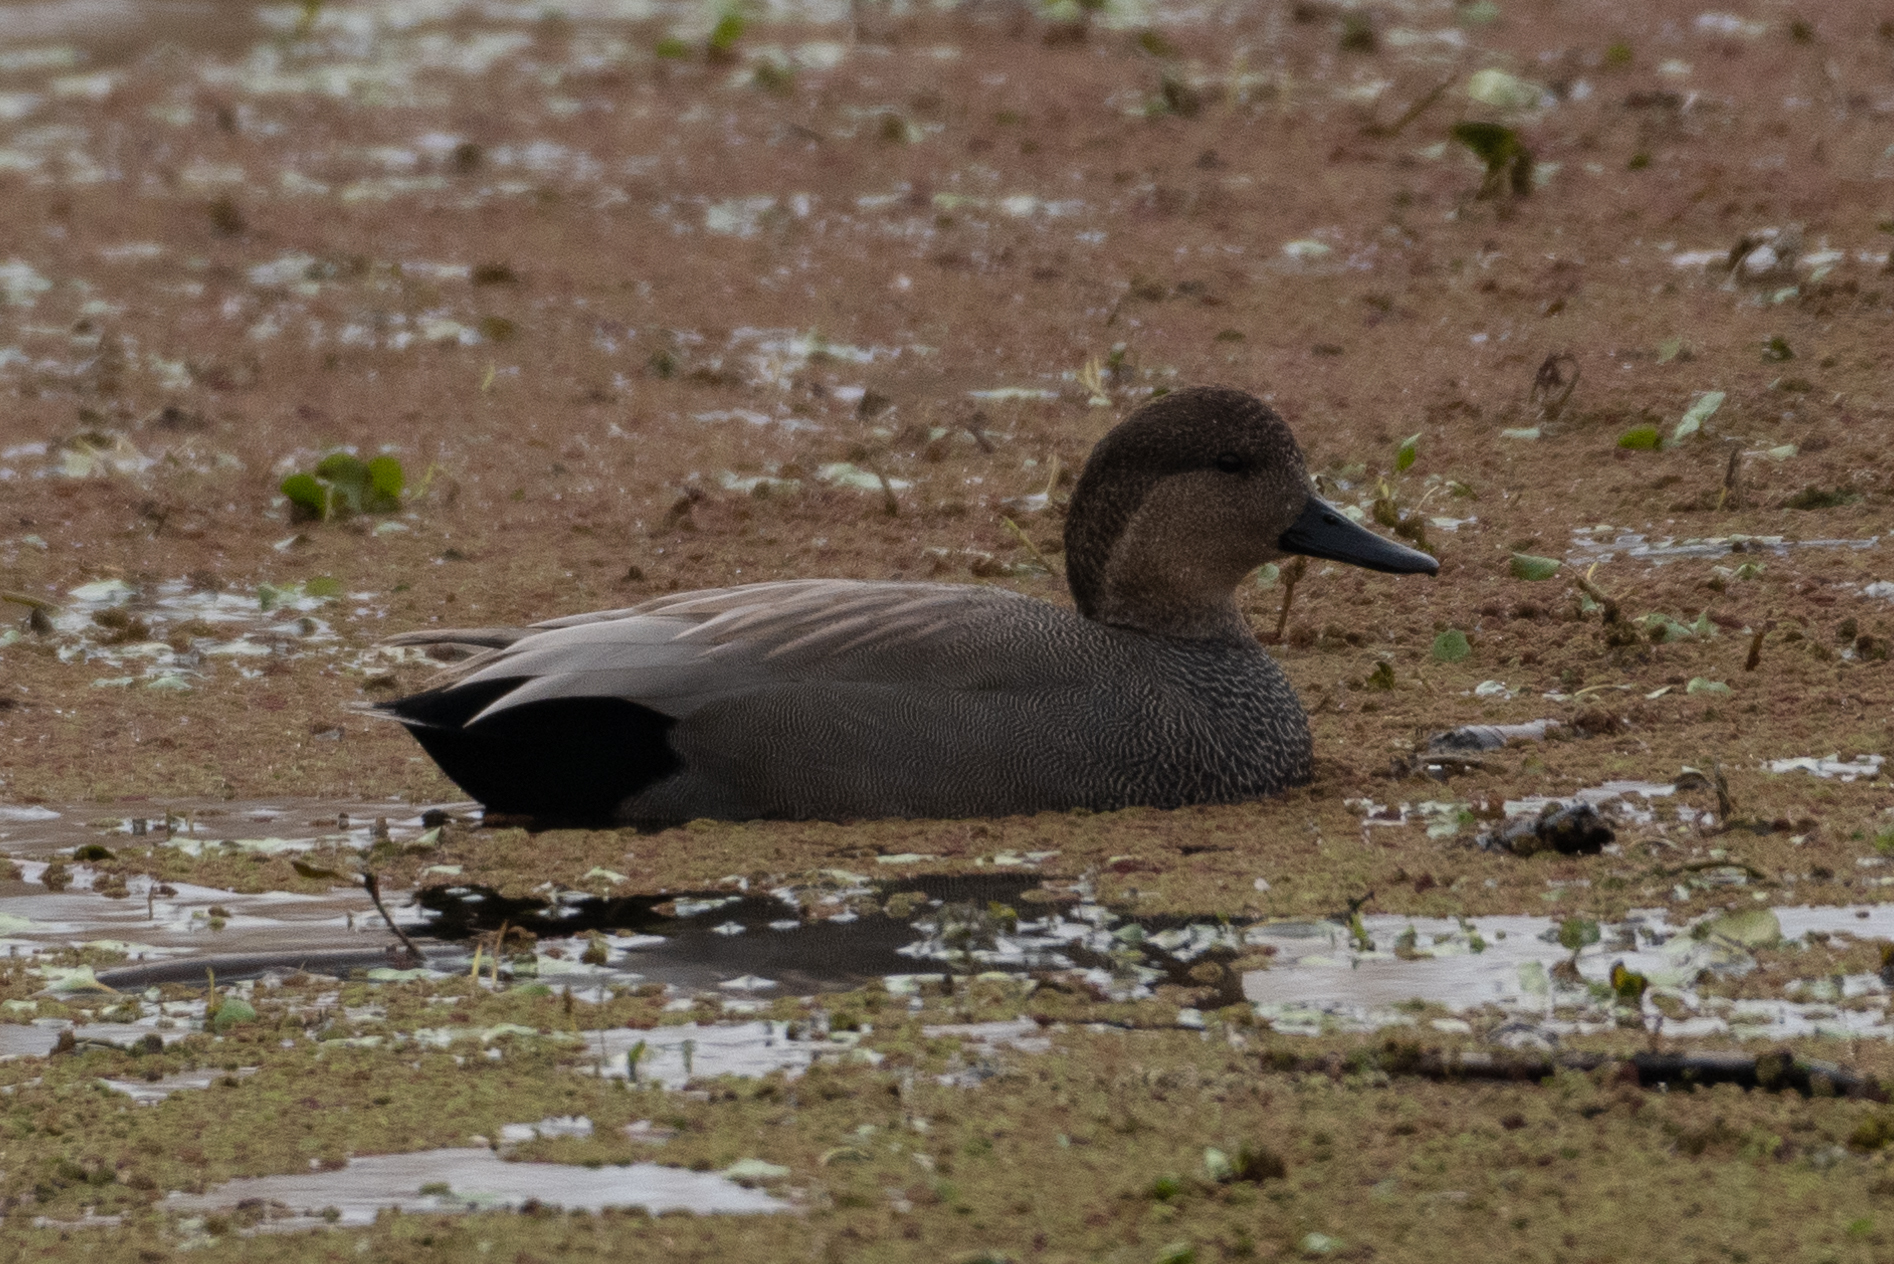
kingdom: Animalia
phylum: Chordata
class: Aves
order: Anseriformes
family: Anatidae
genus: Mareca
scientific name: Mareca strepera
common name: Gadwall
